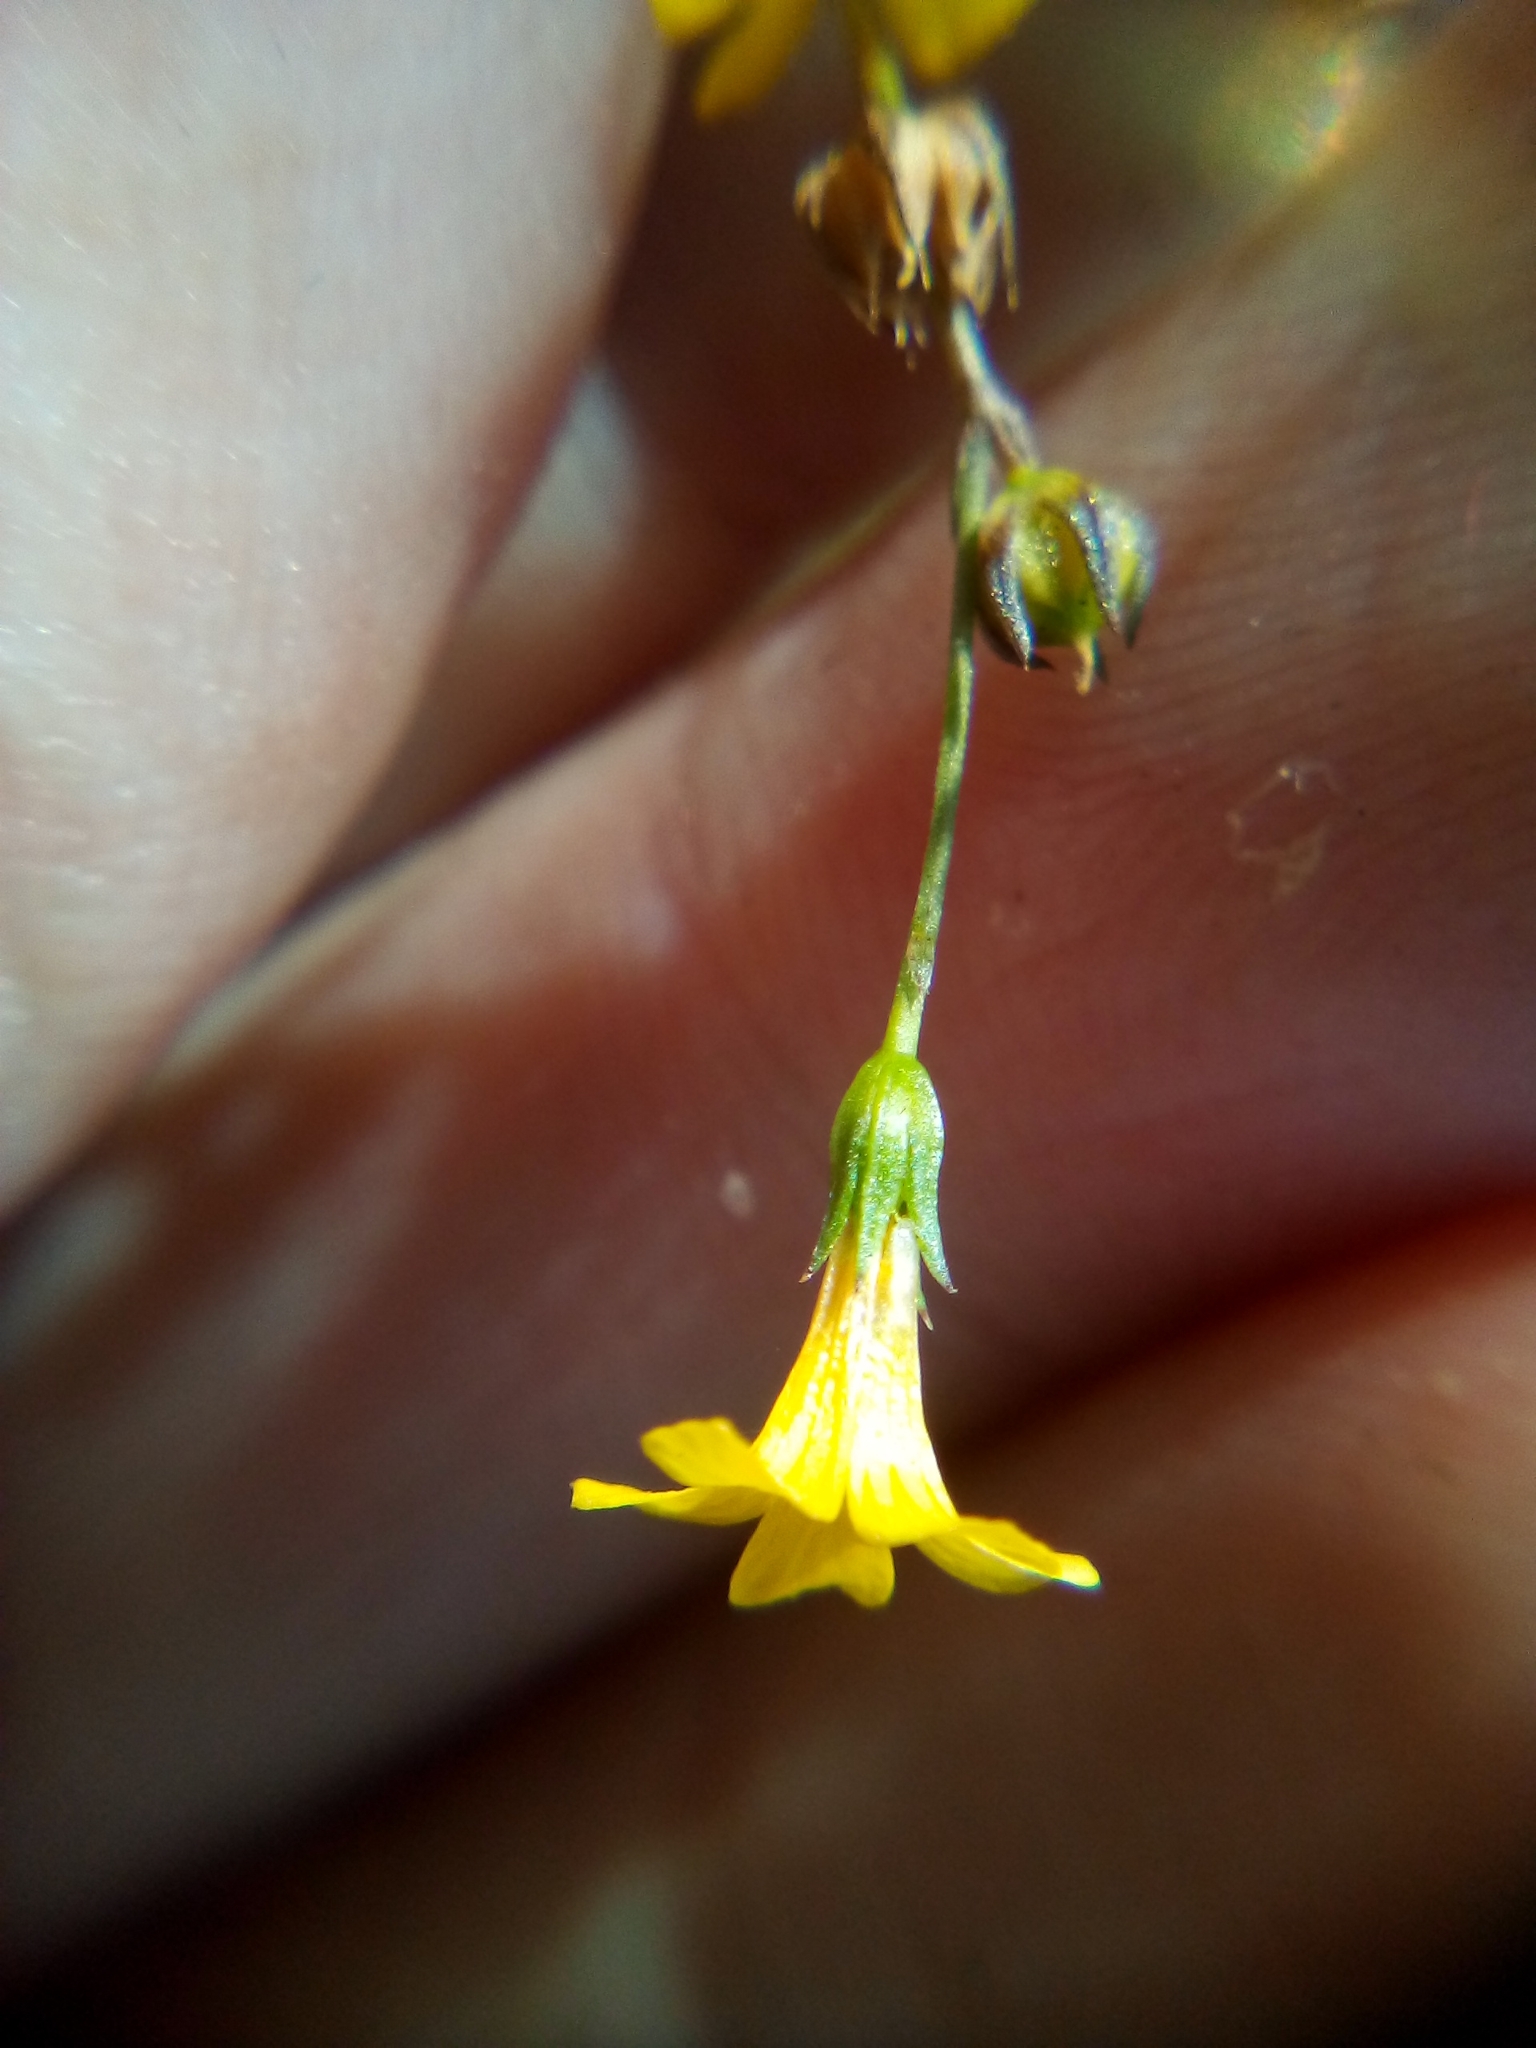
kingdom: Plantae
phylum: Tracheophyta
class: Magnoliopsida
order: Malpighiales
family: Linaceae
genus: Linum
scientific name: Linum trigynum
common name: French flax
